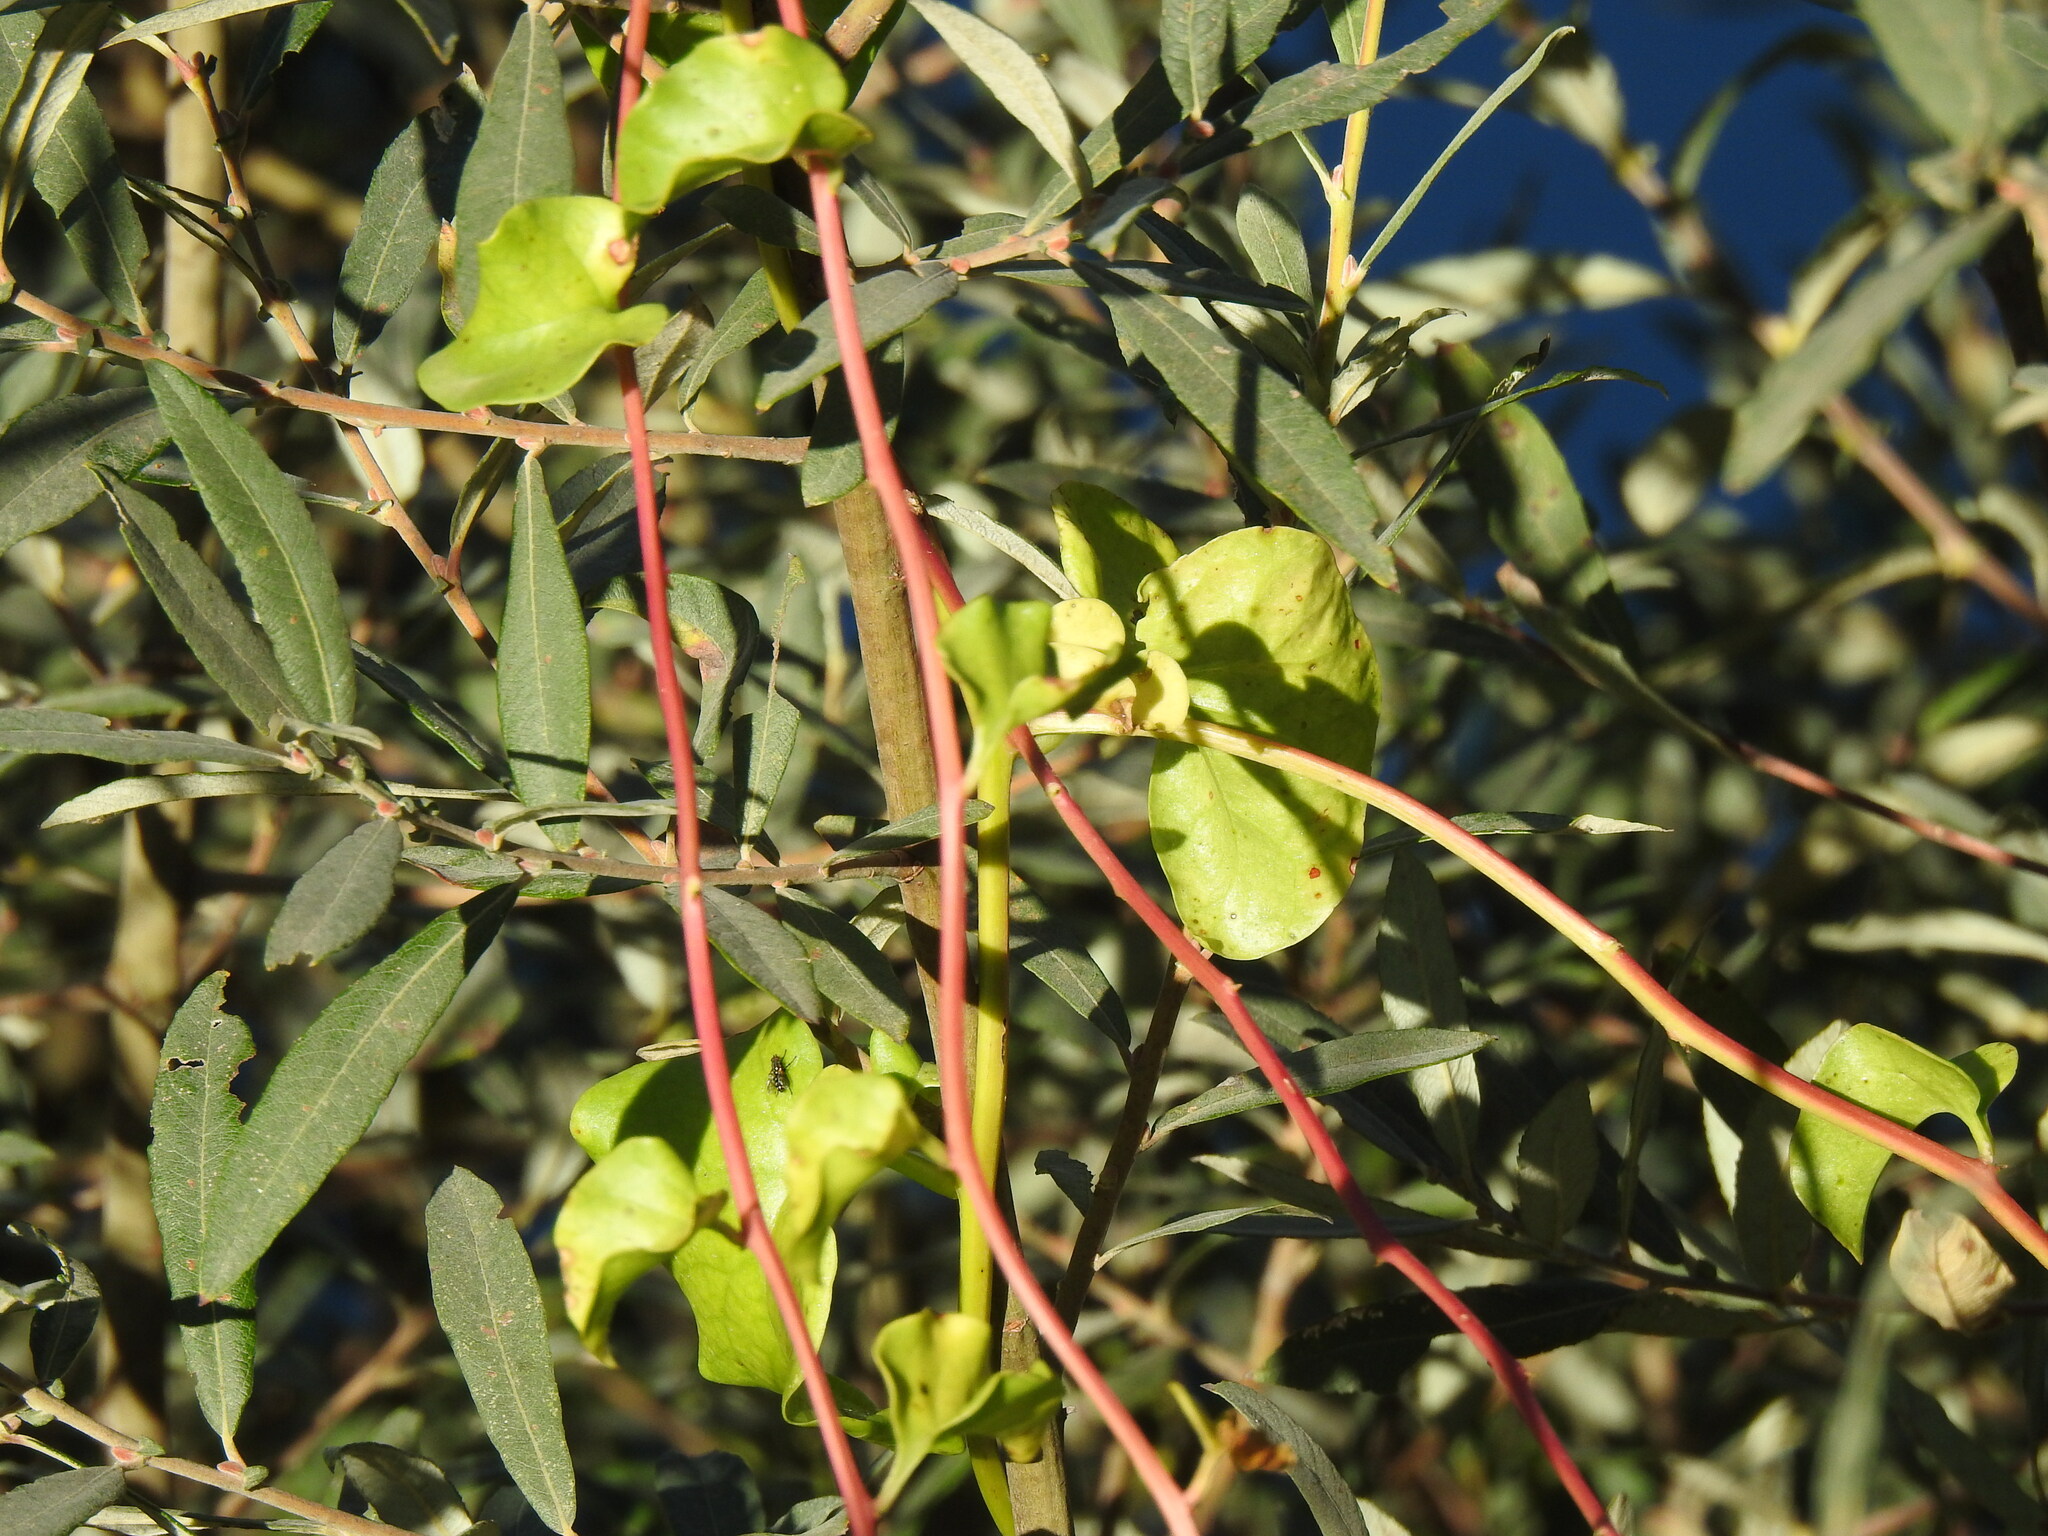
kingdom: Plantae
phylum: Tracheophyta
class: Magnoliopsida
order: Caryophyllales
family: Basellaceae
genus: Anredera
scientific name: Anredera cordifolia
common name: Heartleaf madeiravine
